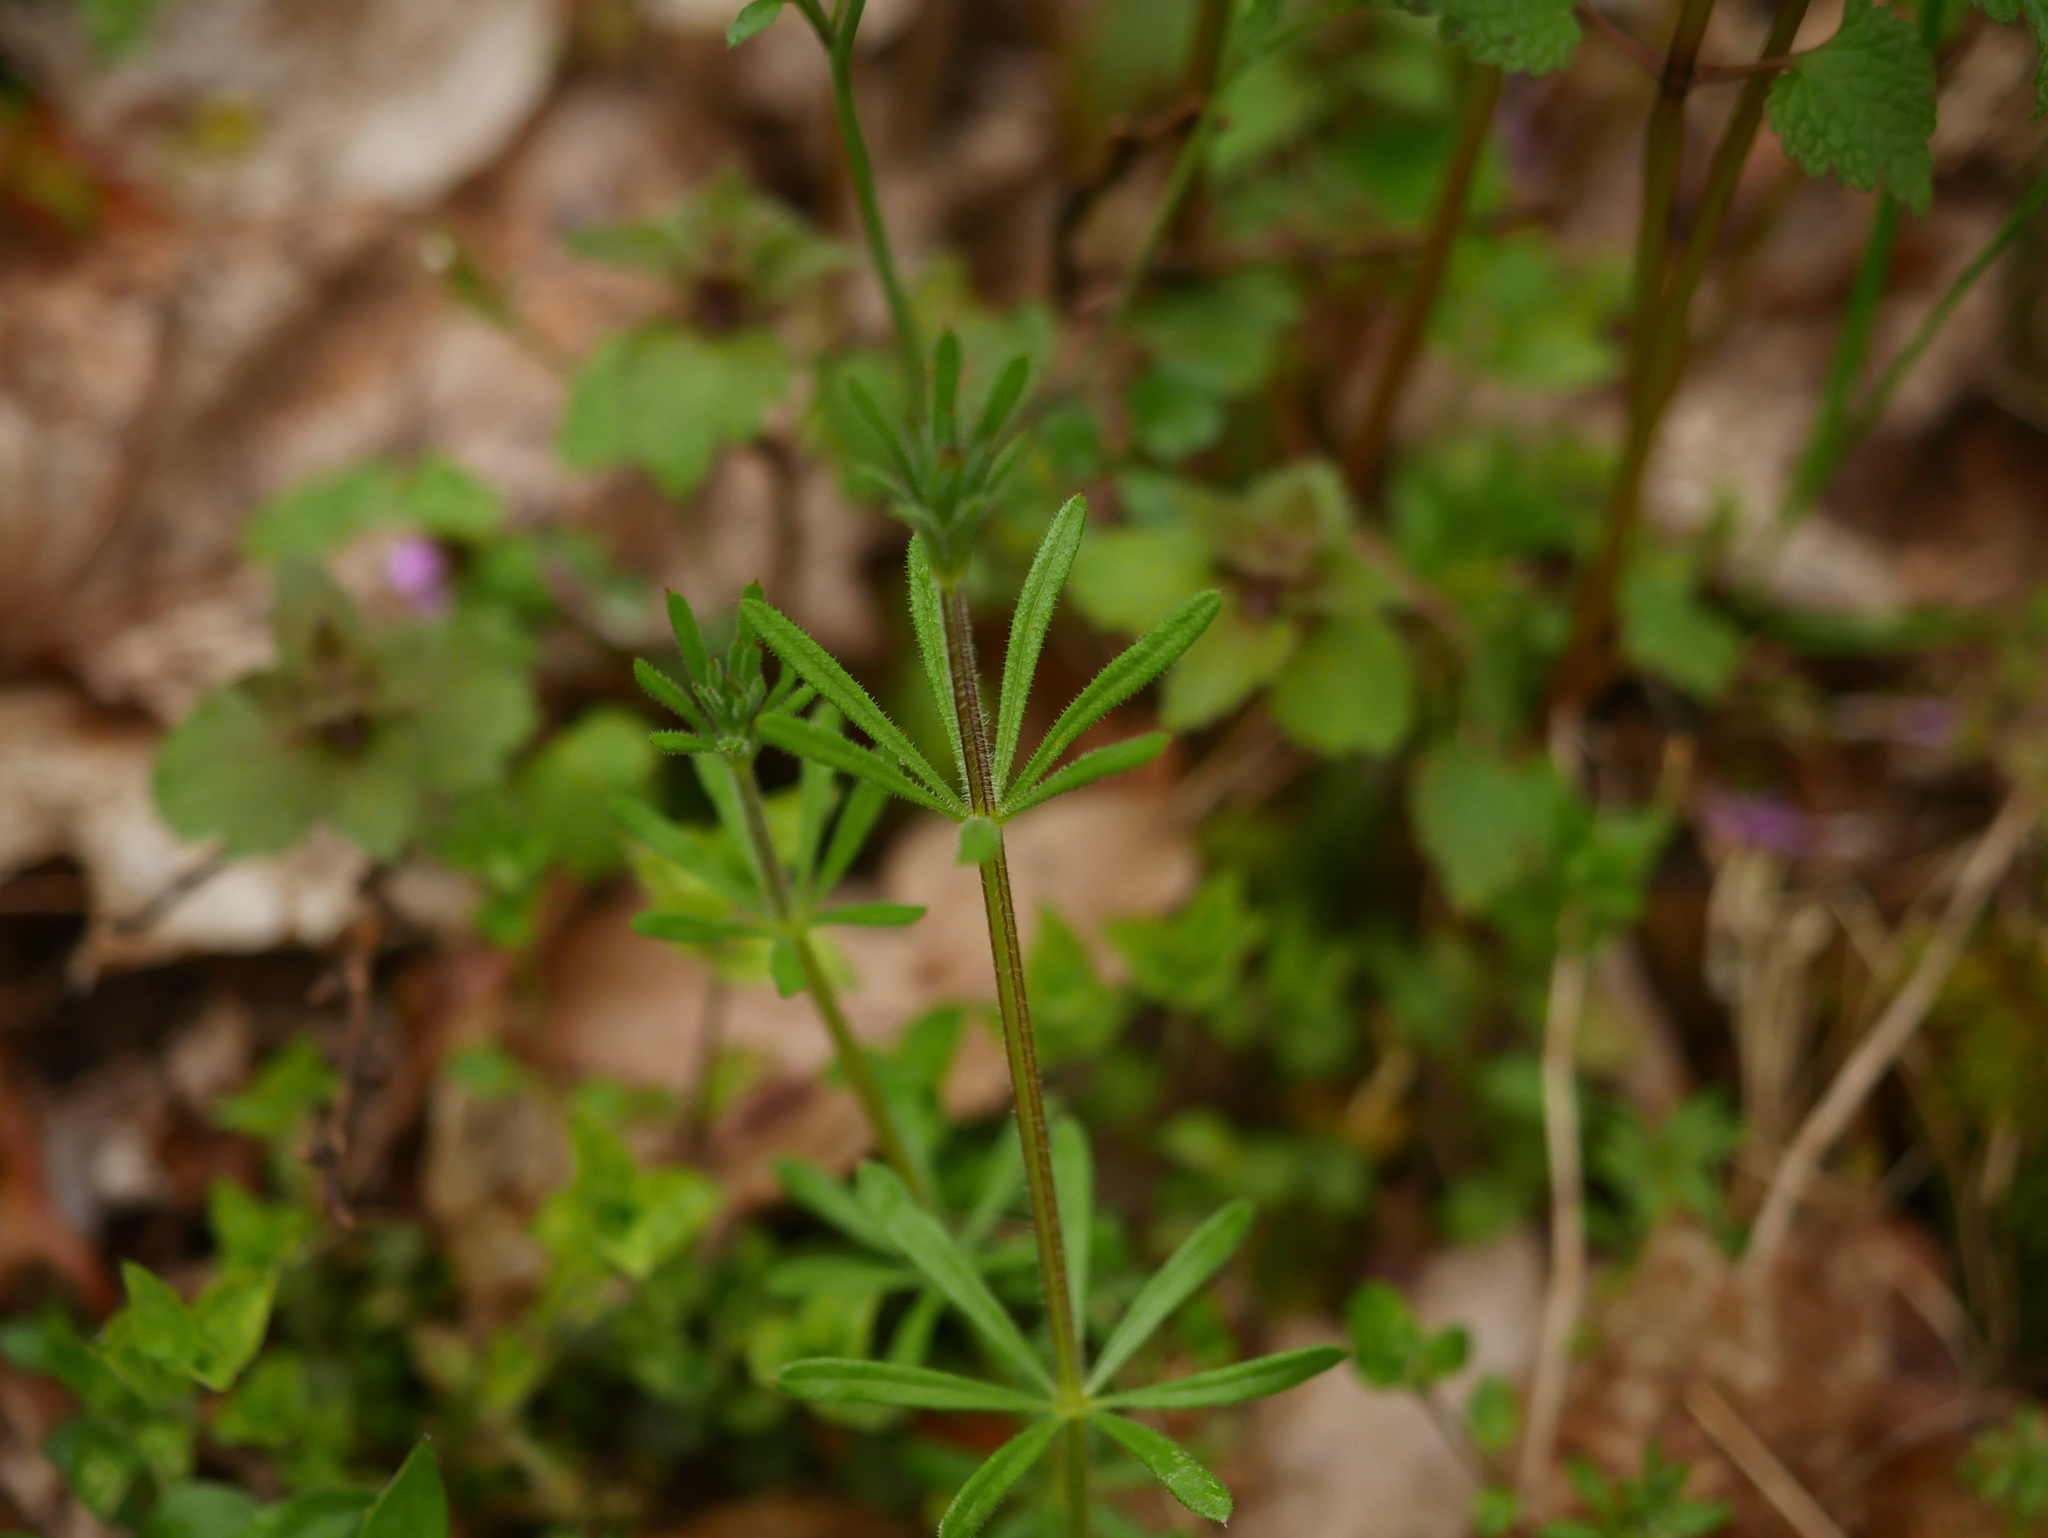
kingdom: Plantae
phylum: Tracheophyta
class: Magnoliopsida
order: Gentianales
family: Rubiaceae
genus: Galium
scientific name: Galium aparine
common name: Cleavers
